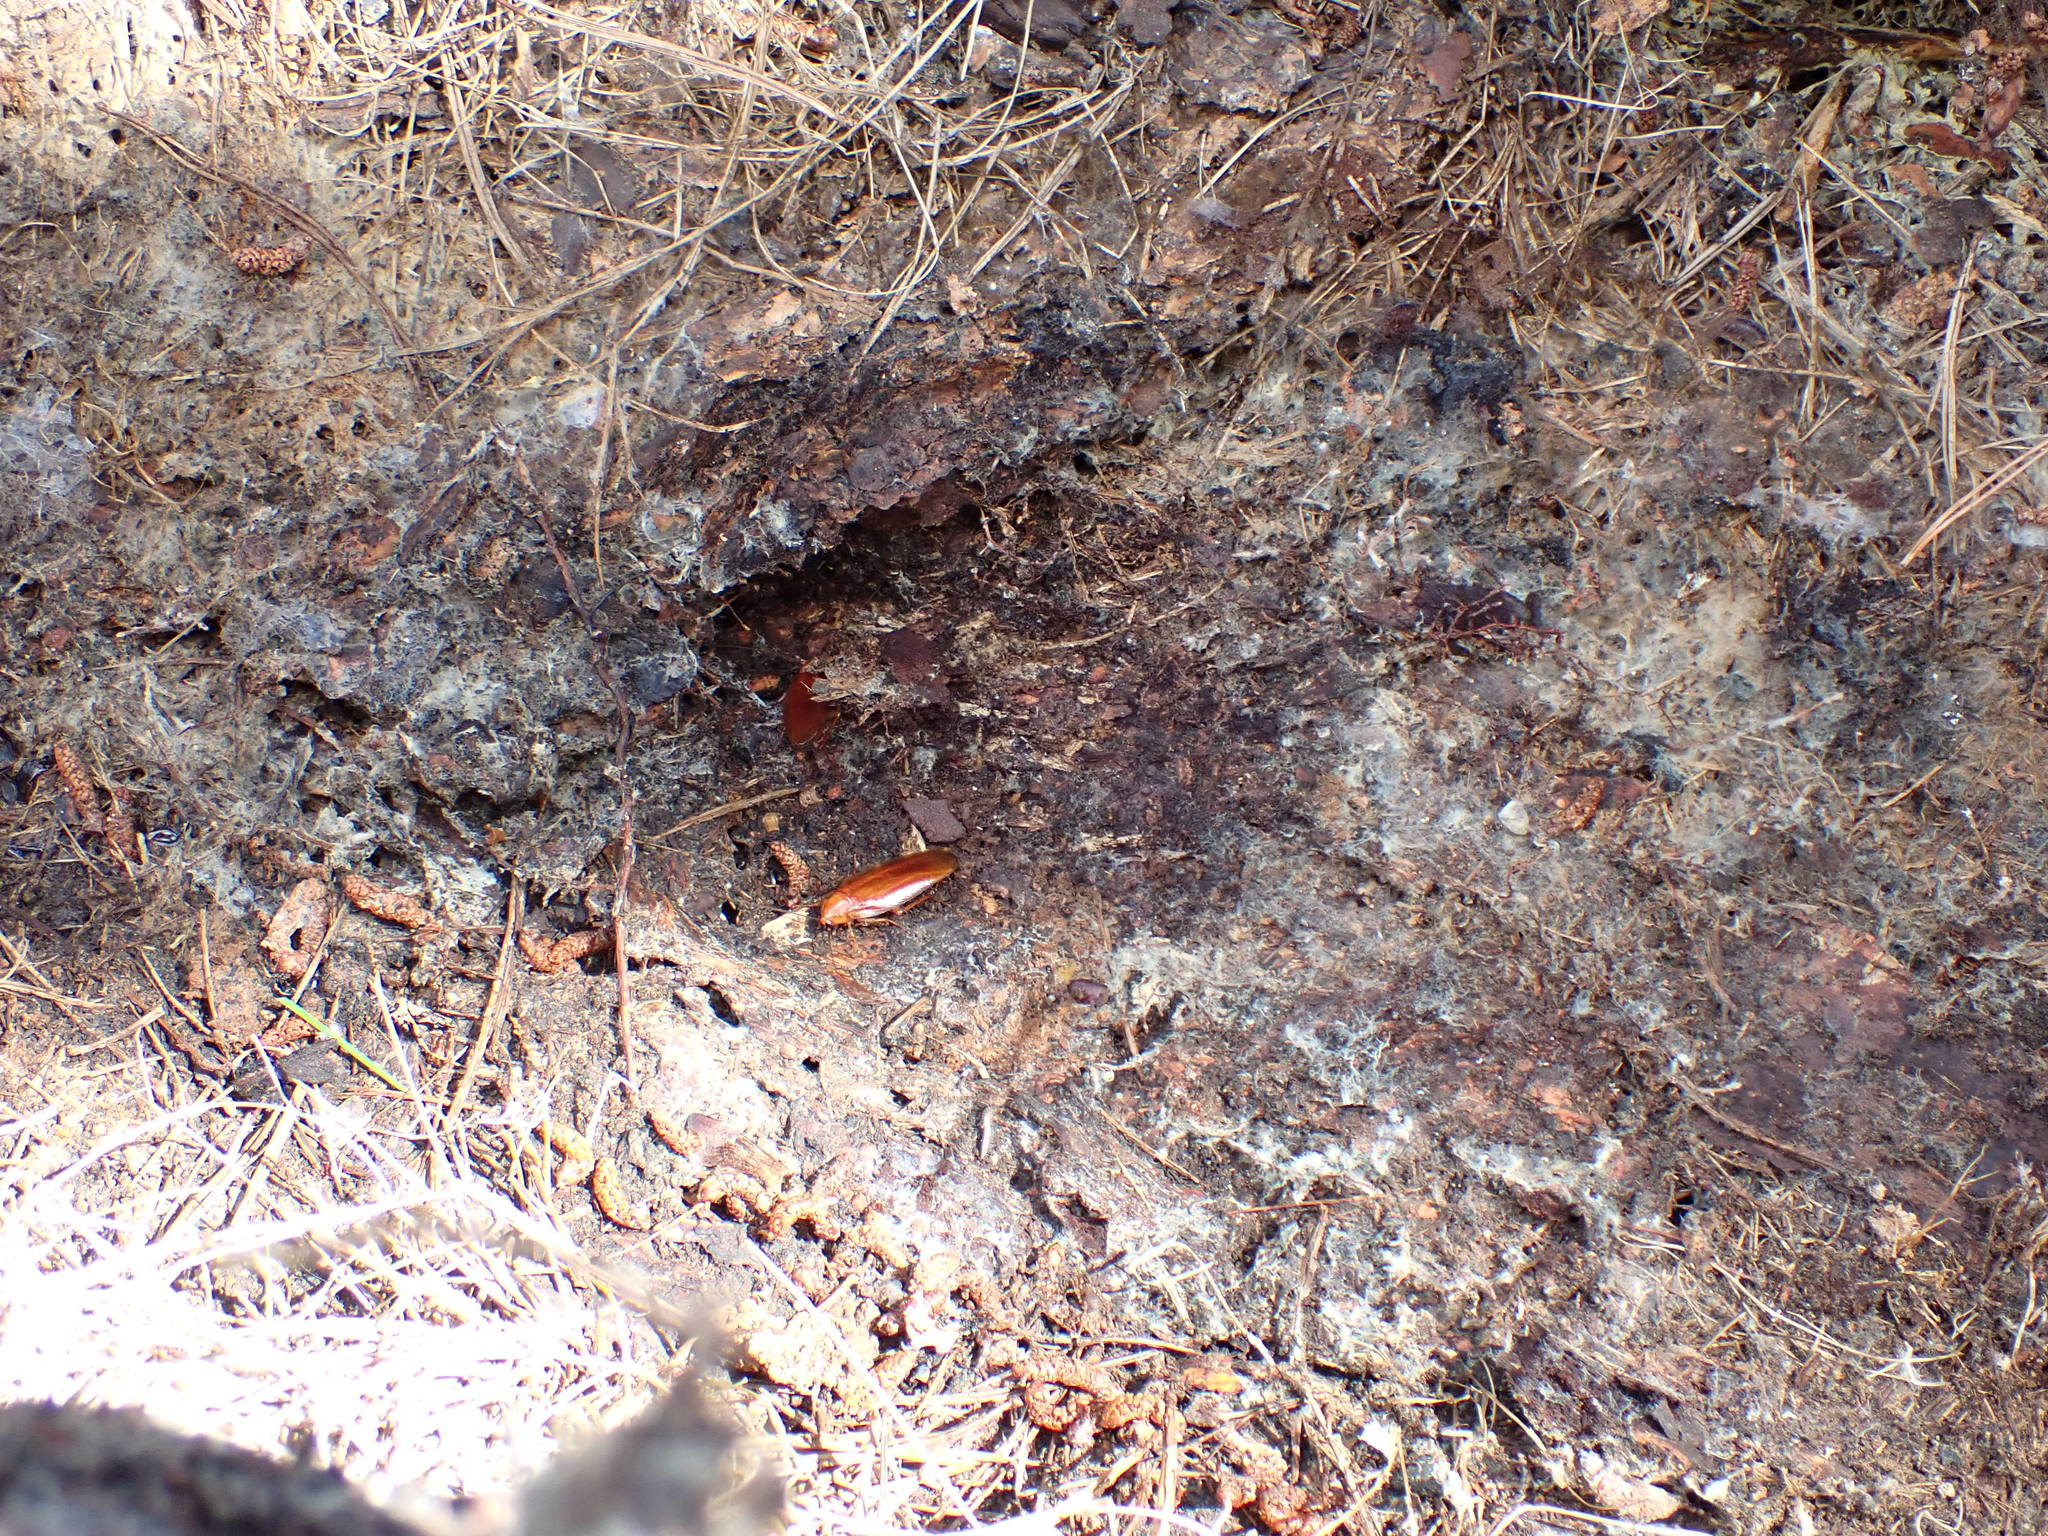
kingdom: Animalia
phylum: Arthropoda
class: Insecta
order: Blattodea
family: Ectobiidae
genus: Neotemnopteryx
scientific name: Neotemnopteryx fulva
